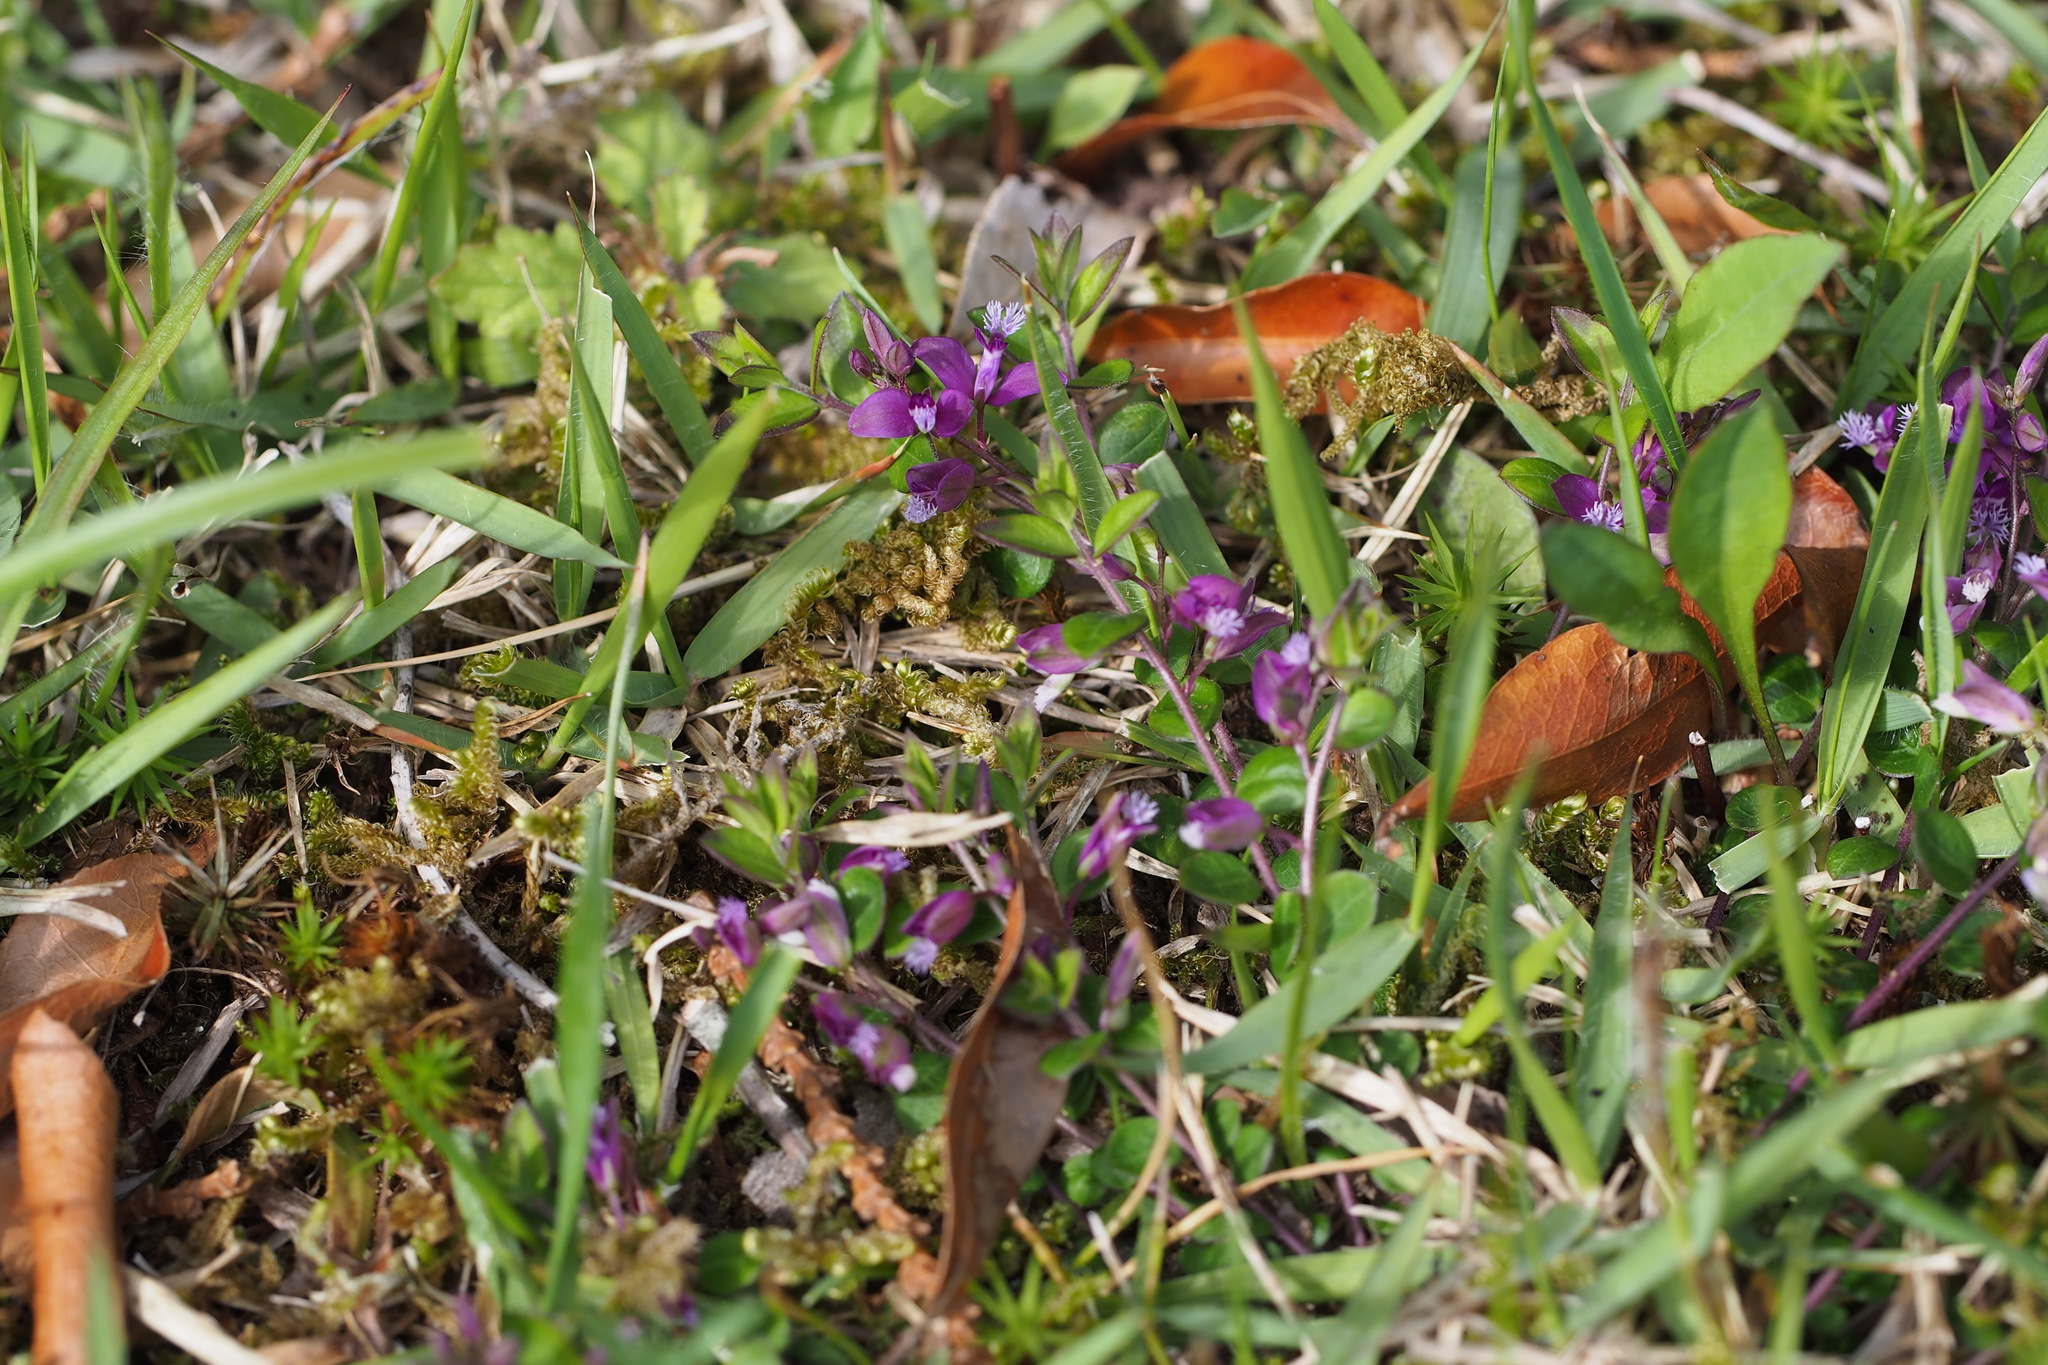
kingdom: Plantae
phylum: Tracheophyta
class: Magnoliopsida
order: Fabales
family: Polygalaceae
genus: Polygala
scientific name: Polygala japonica
